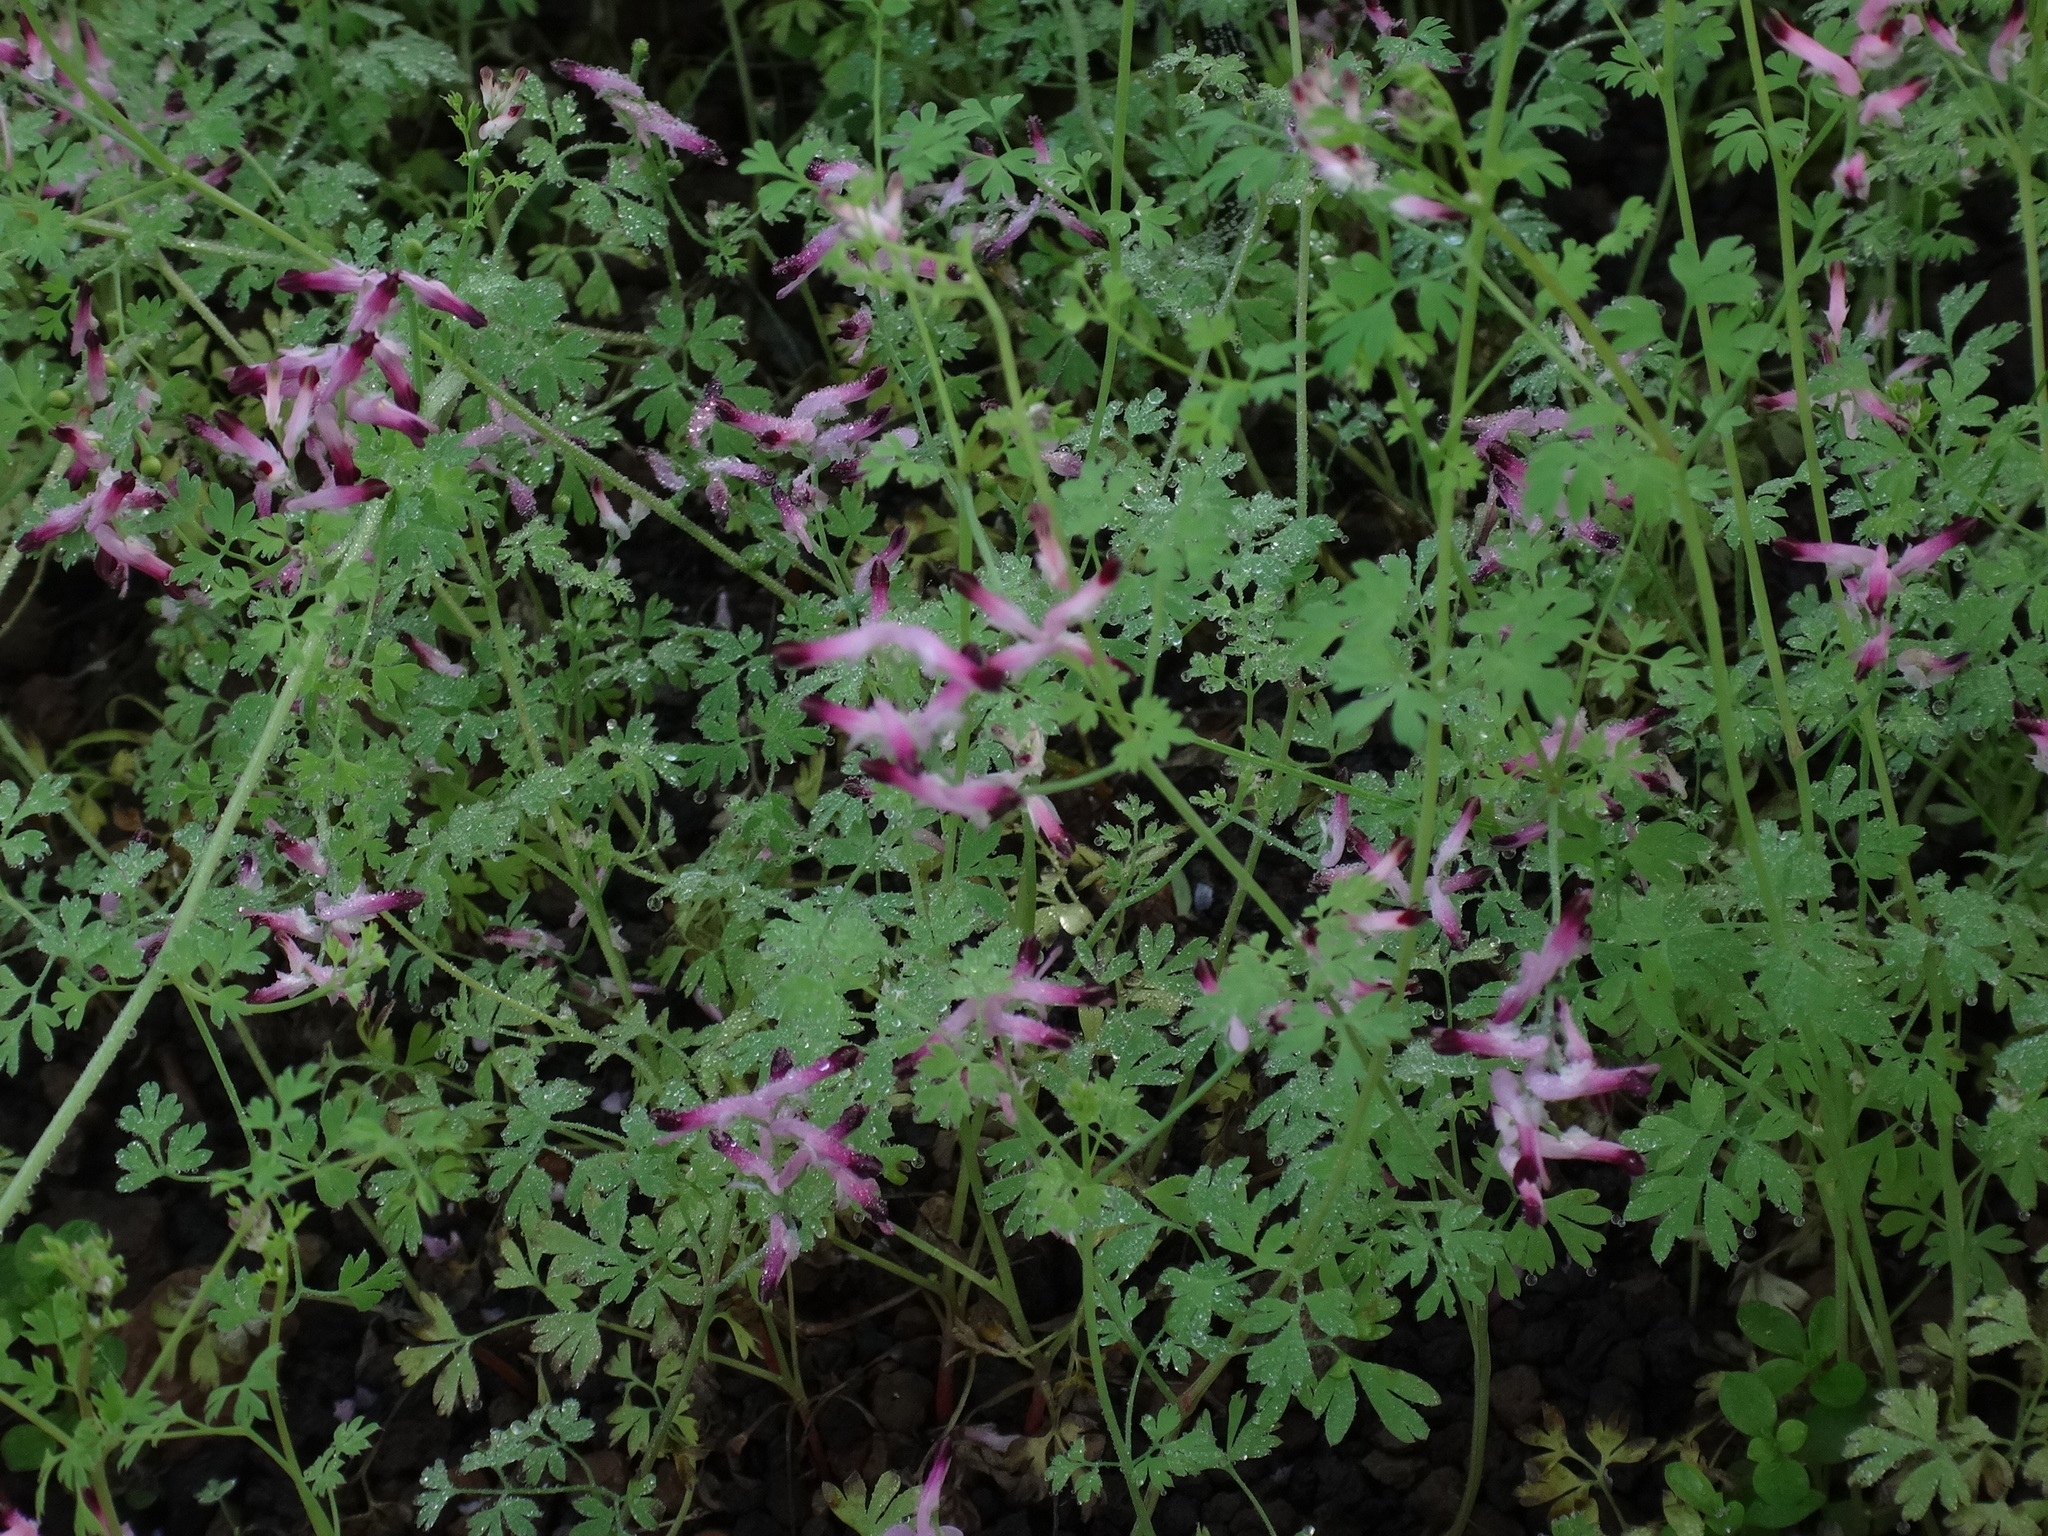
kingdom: Plantae
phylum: Tracheophyta
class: Magnoliopsida
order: Ranunculales
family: Papaveraceae
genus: Fumaria
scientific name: Fumaria montana
